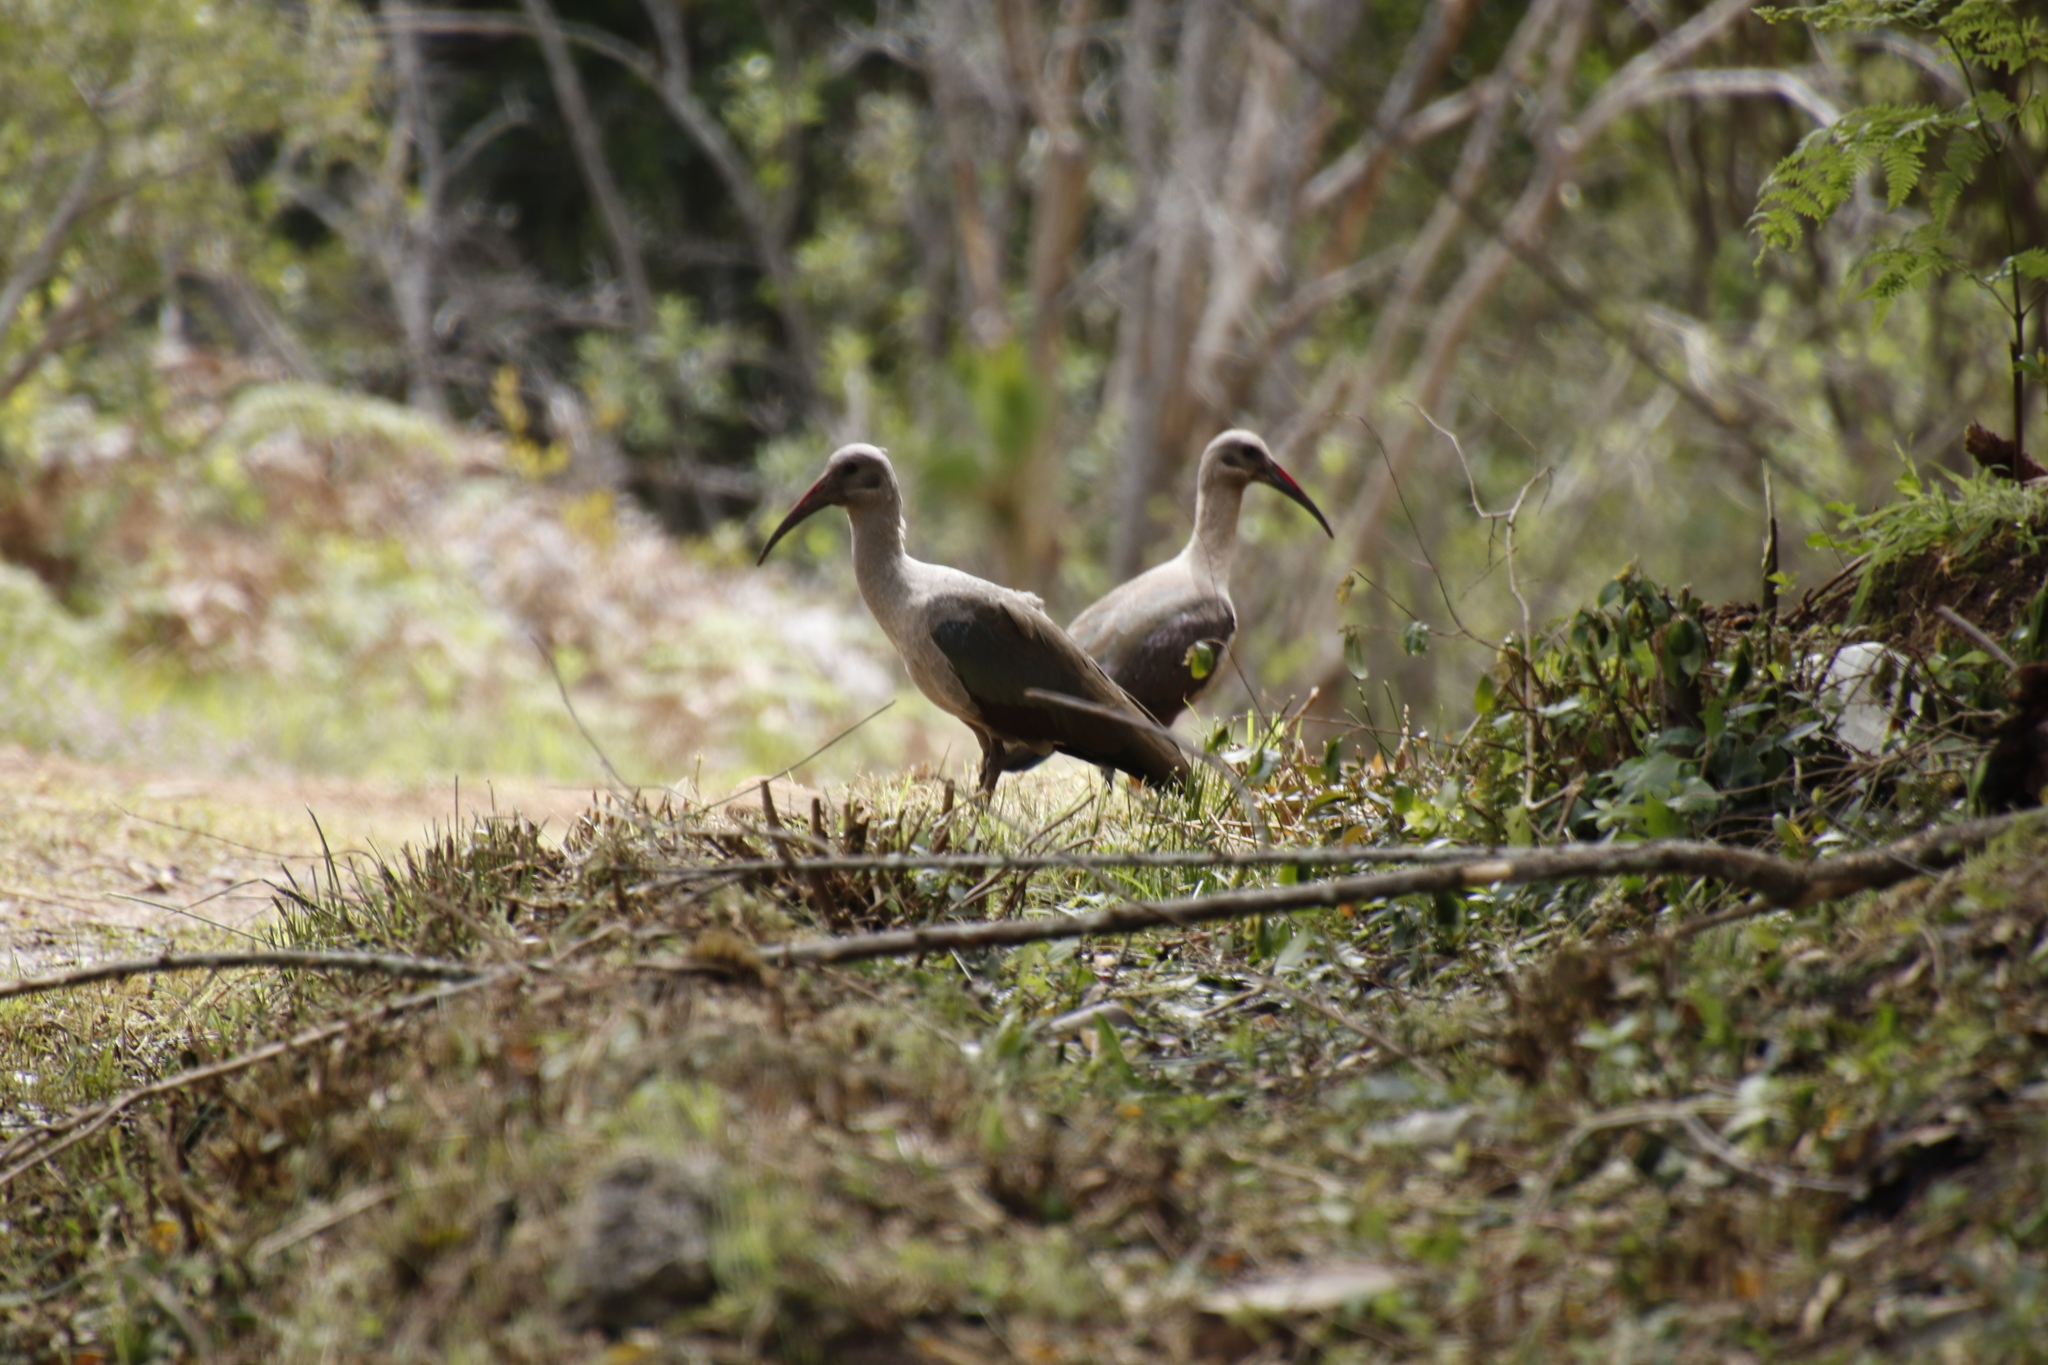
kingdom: Animalia
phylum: Chordata
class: Aves
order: Pelecaniformes
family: Threskiornithidae
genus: Bostrychia
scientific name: Bostrychia hagedash
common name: Hadada ibis
